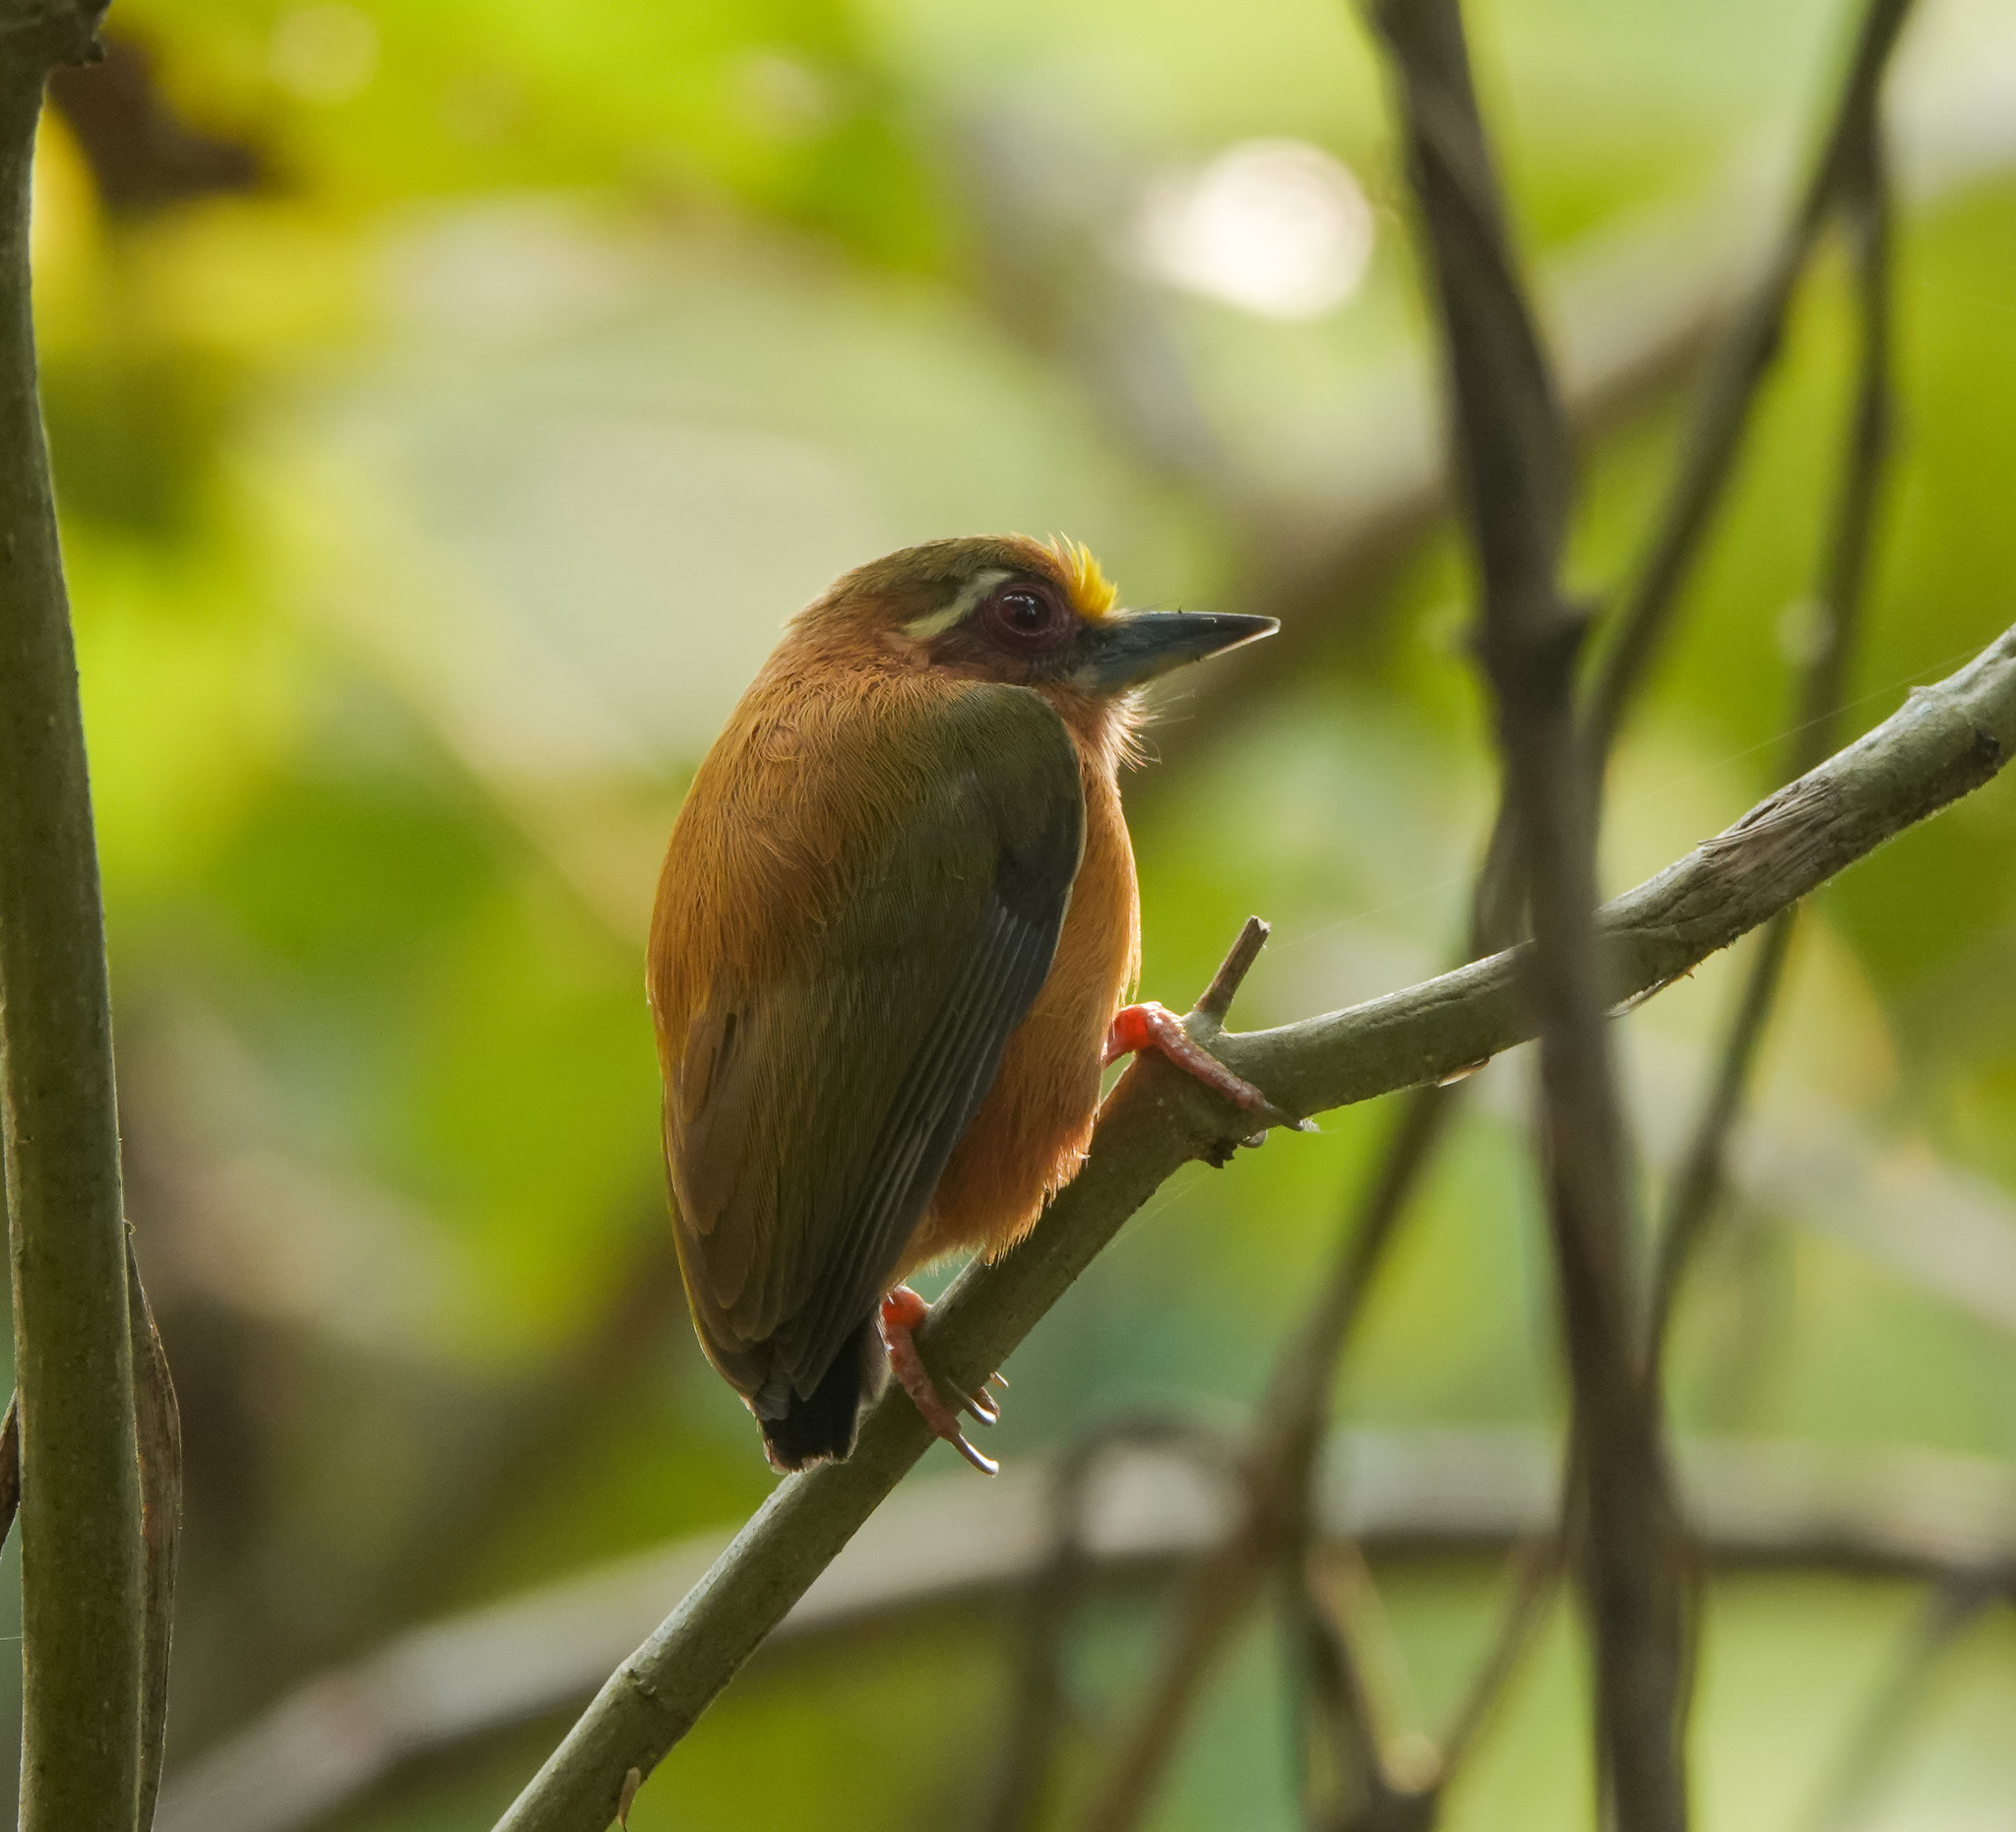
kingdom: Animalia
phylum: Chordata
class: Aves
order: Piciformes
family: Picidae
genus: Sasia
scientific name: Sasia ochracea
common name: White-browed piculet
